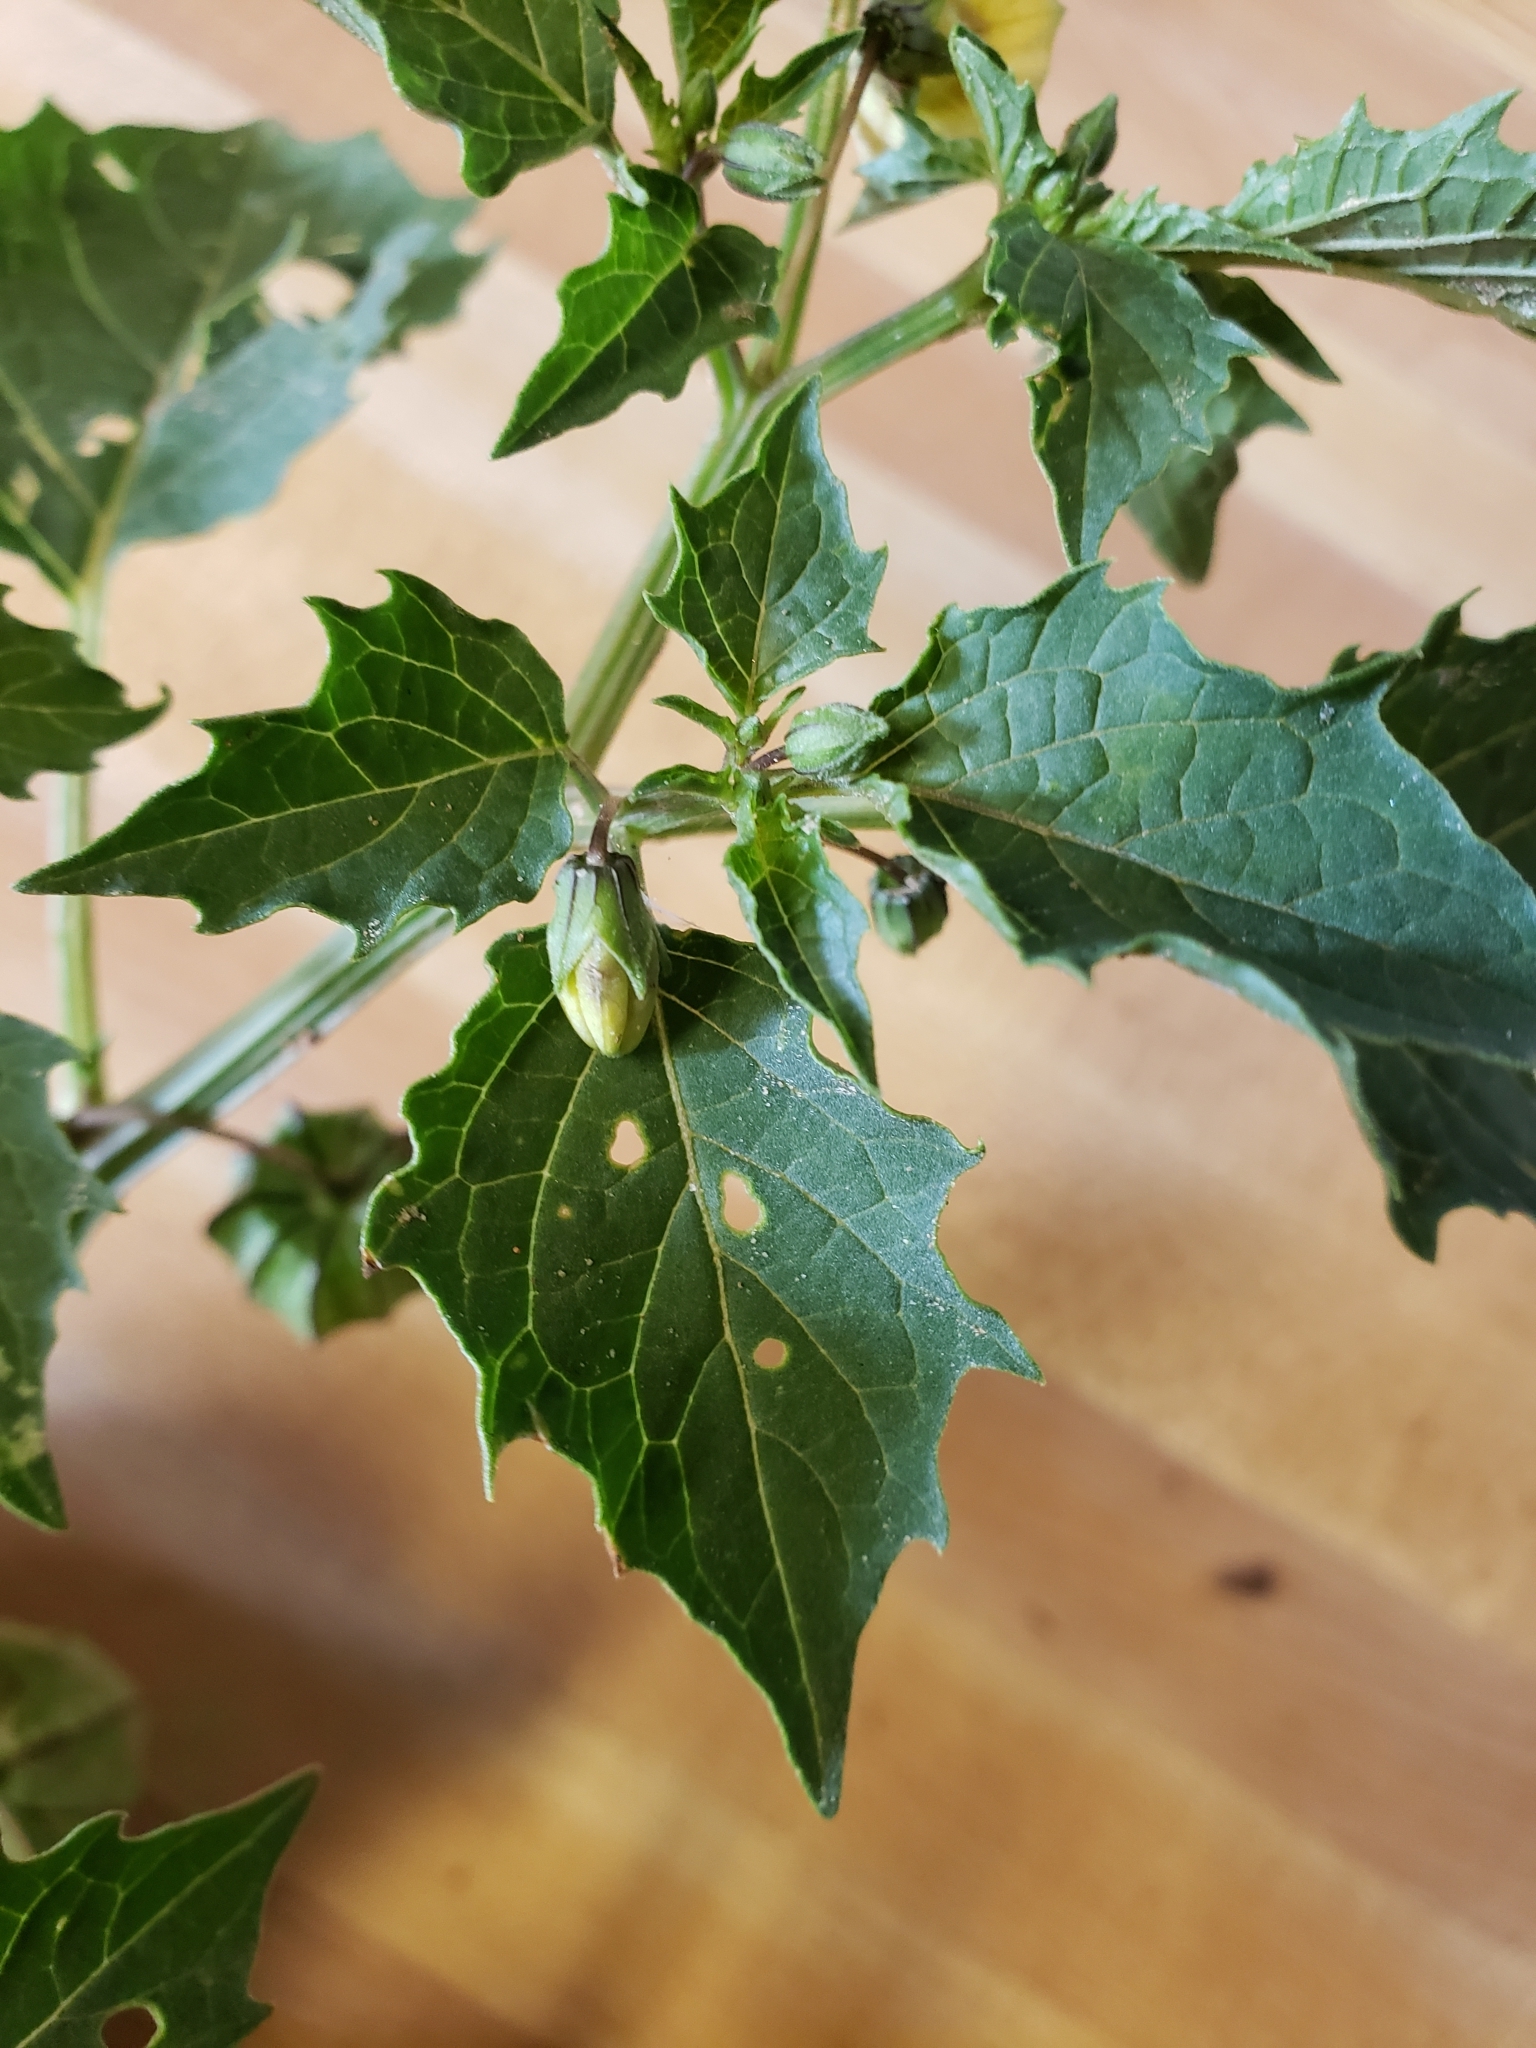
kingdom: Plantae
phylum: Tracheophyta
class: Magnoliopsida
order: Solanales
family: Solanaceae
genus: Physalis
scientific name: Physalis angulata
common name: Angular winter-cherry
